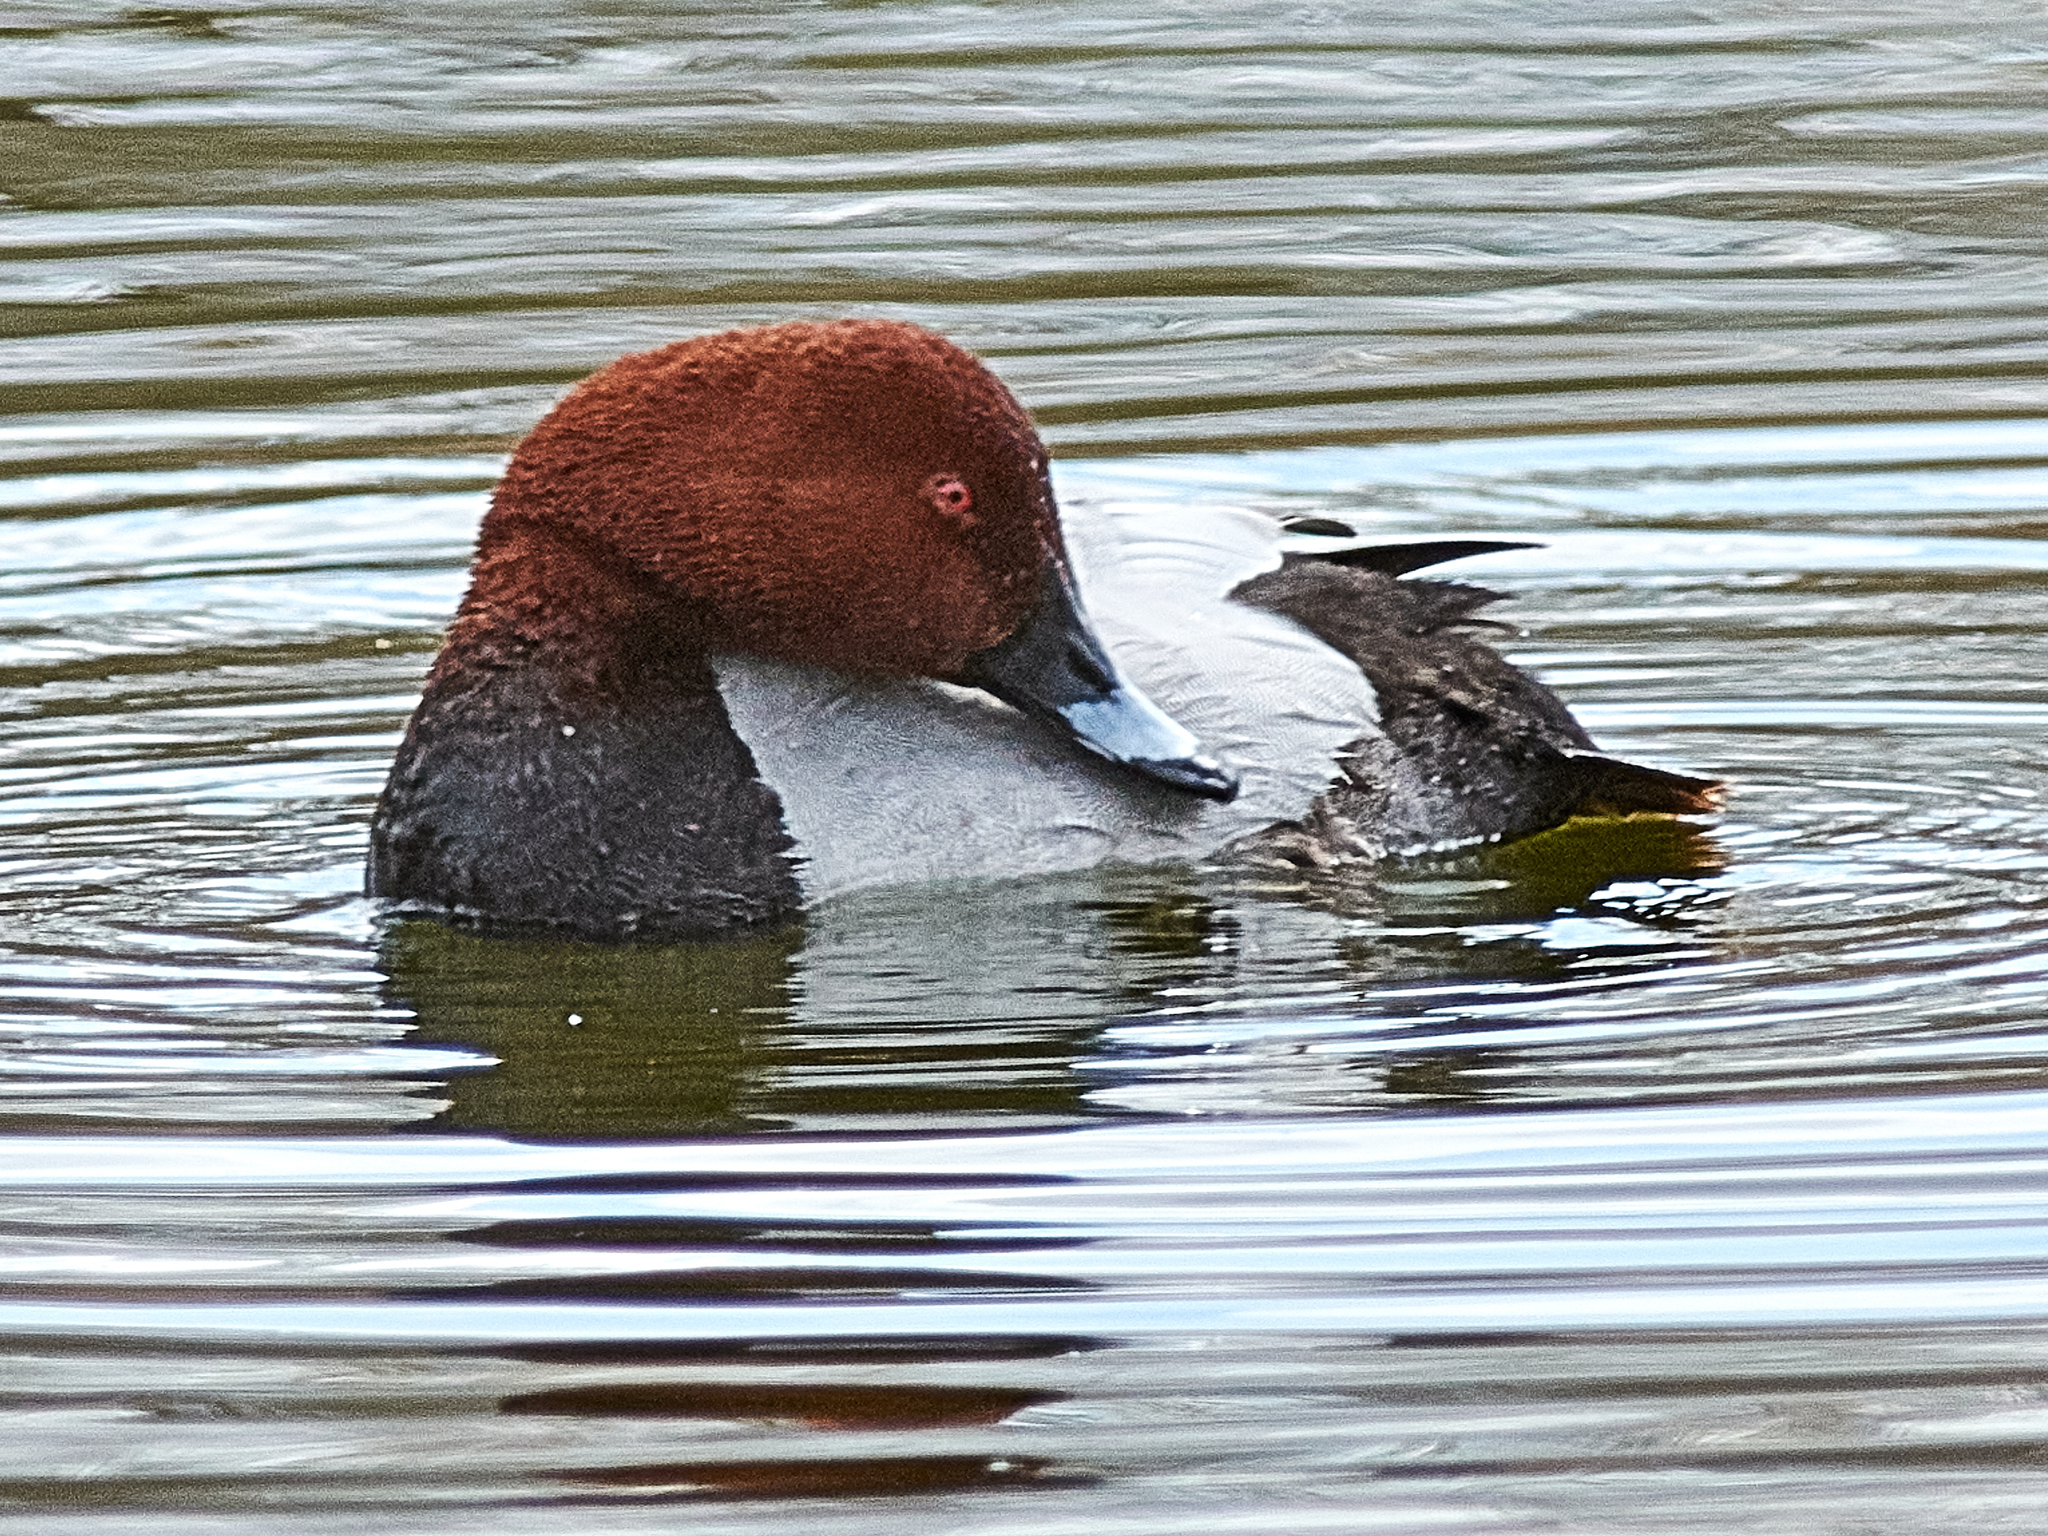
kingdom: Animalia
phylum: Chordata
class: Aves
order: Anseriformes
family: Anatidae
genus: Aythya
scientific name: Aythya ferina
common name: Common pochard
